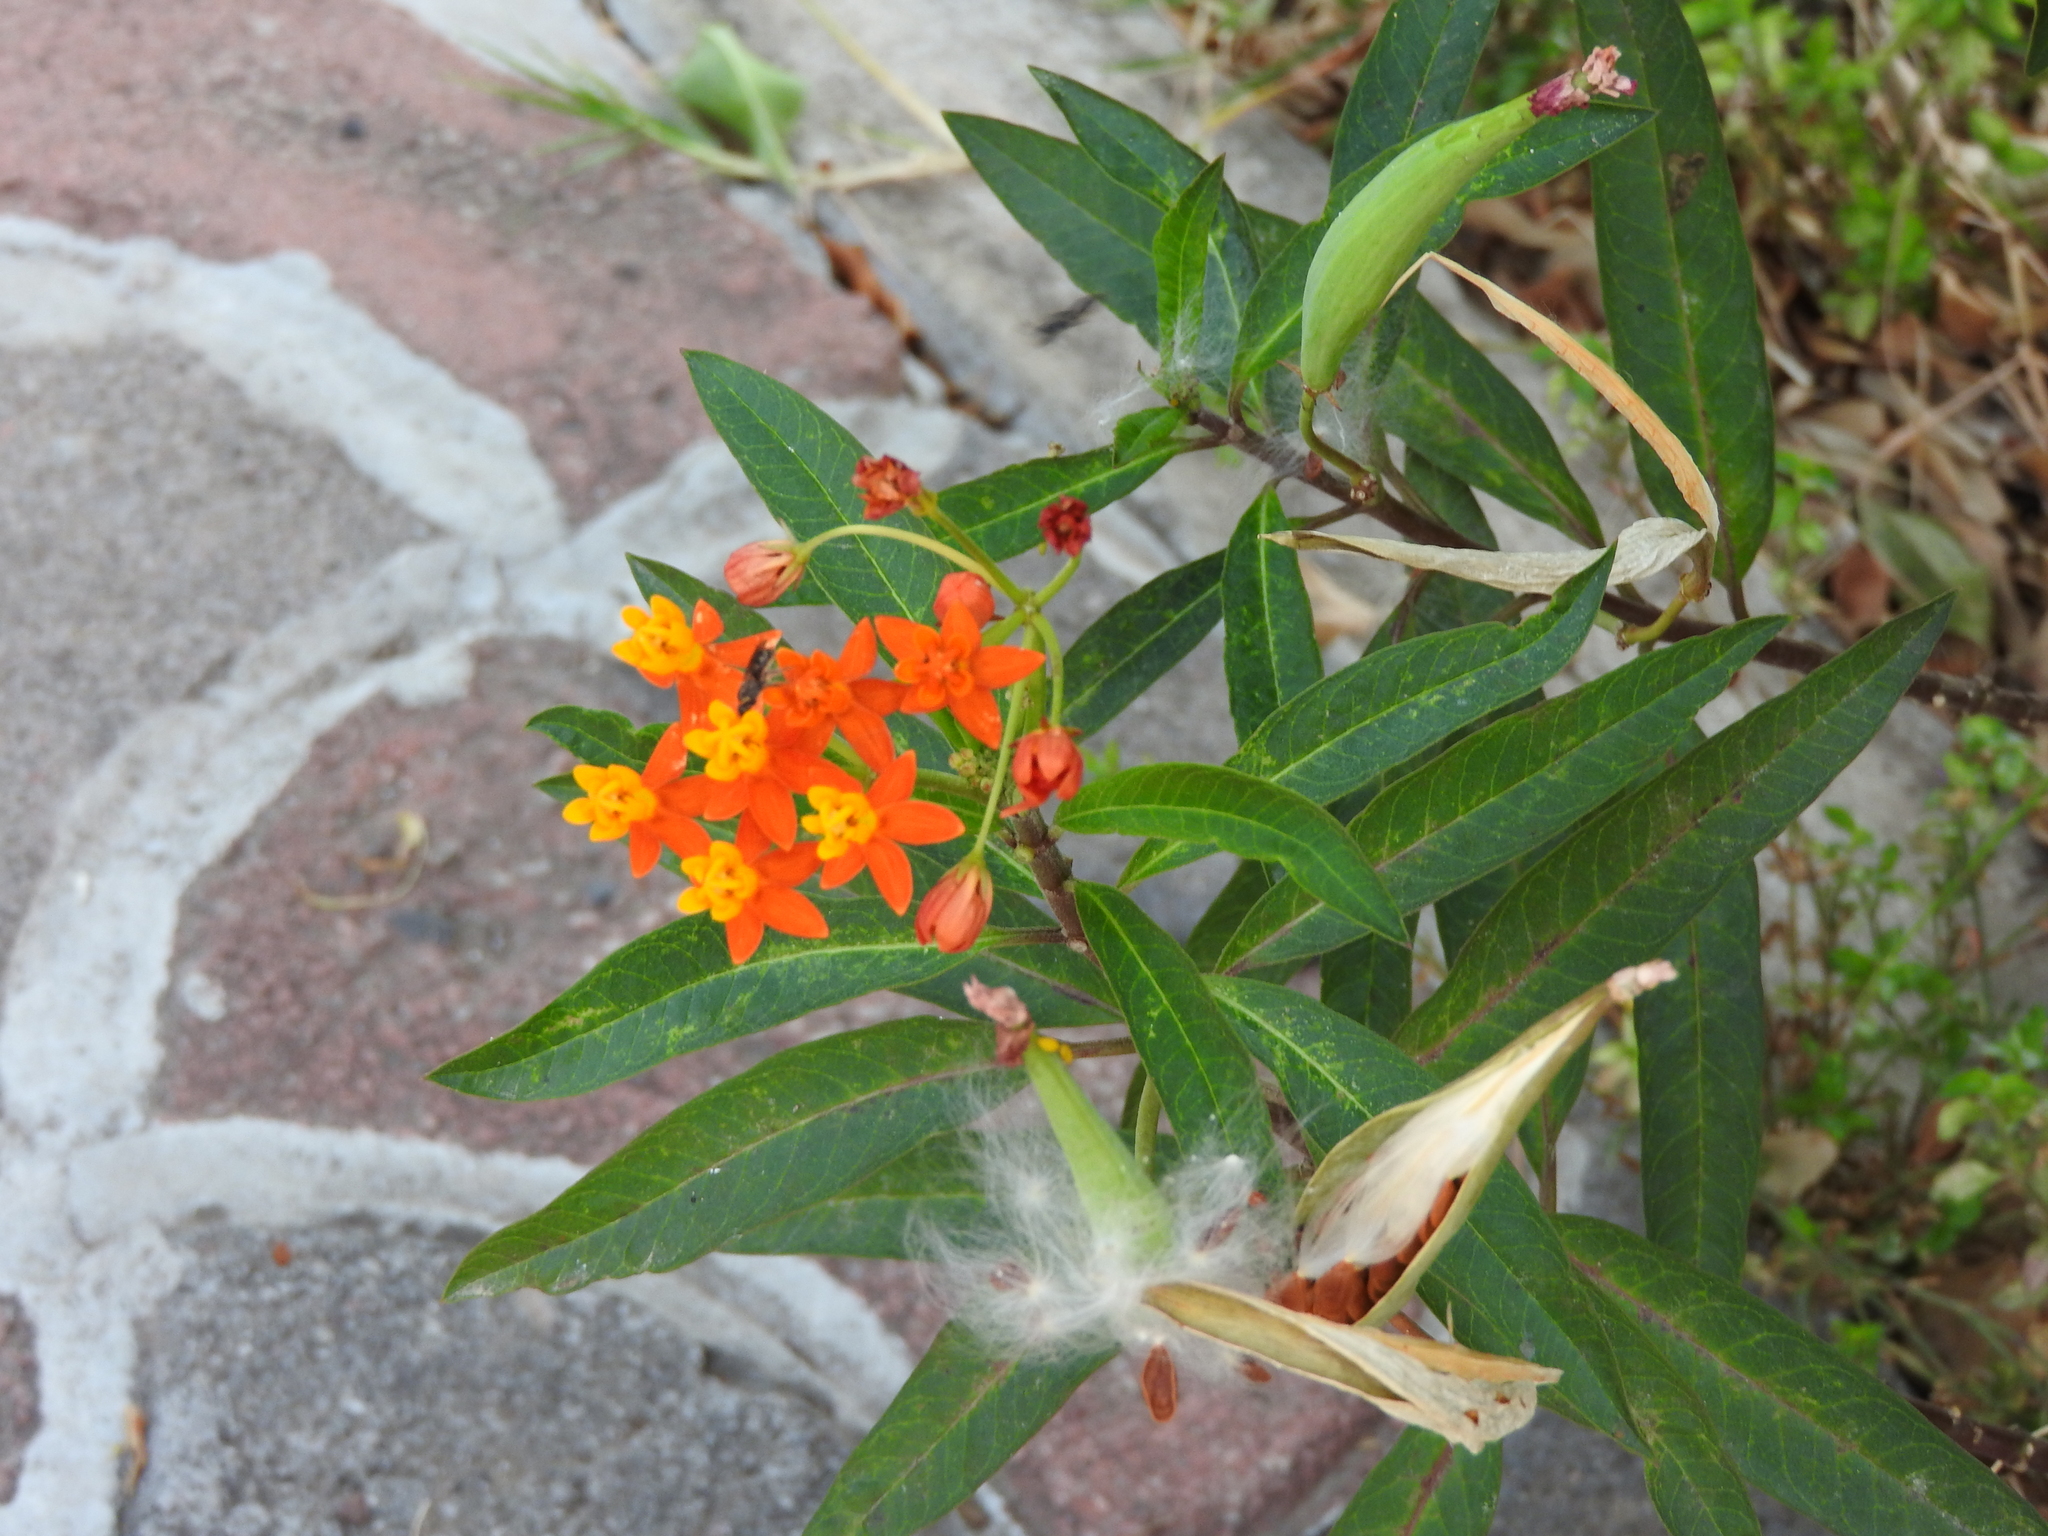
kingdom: Plantae
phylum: Tracheophyta
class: Magnoliopsida
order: Gentianales
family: Apocynaceae
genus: Asclepias
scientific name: Asclepias curassavica
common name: Bloodflower
